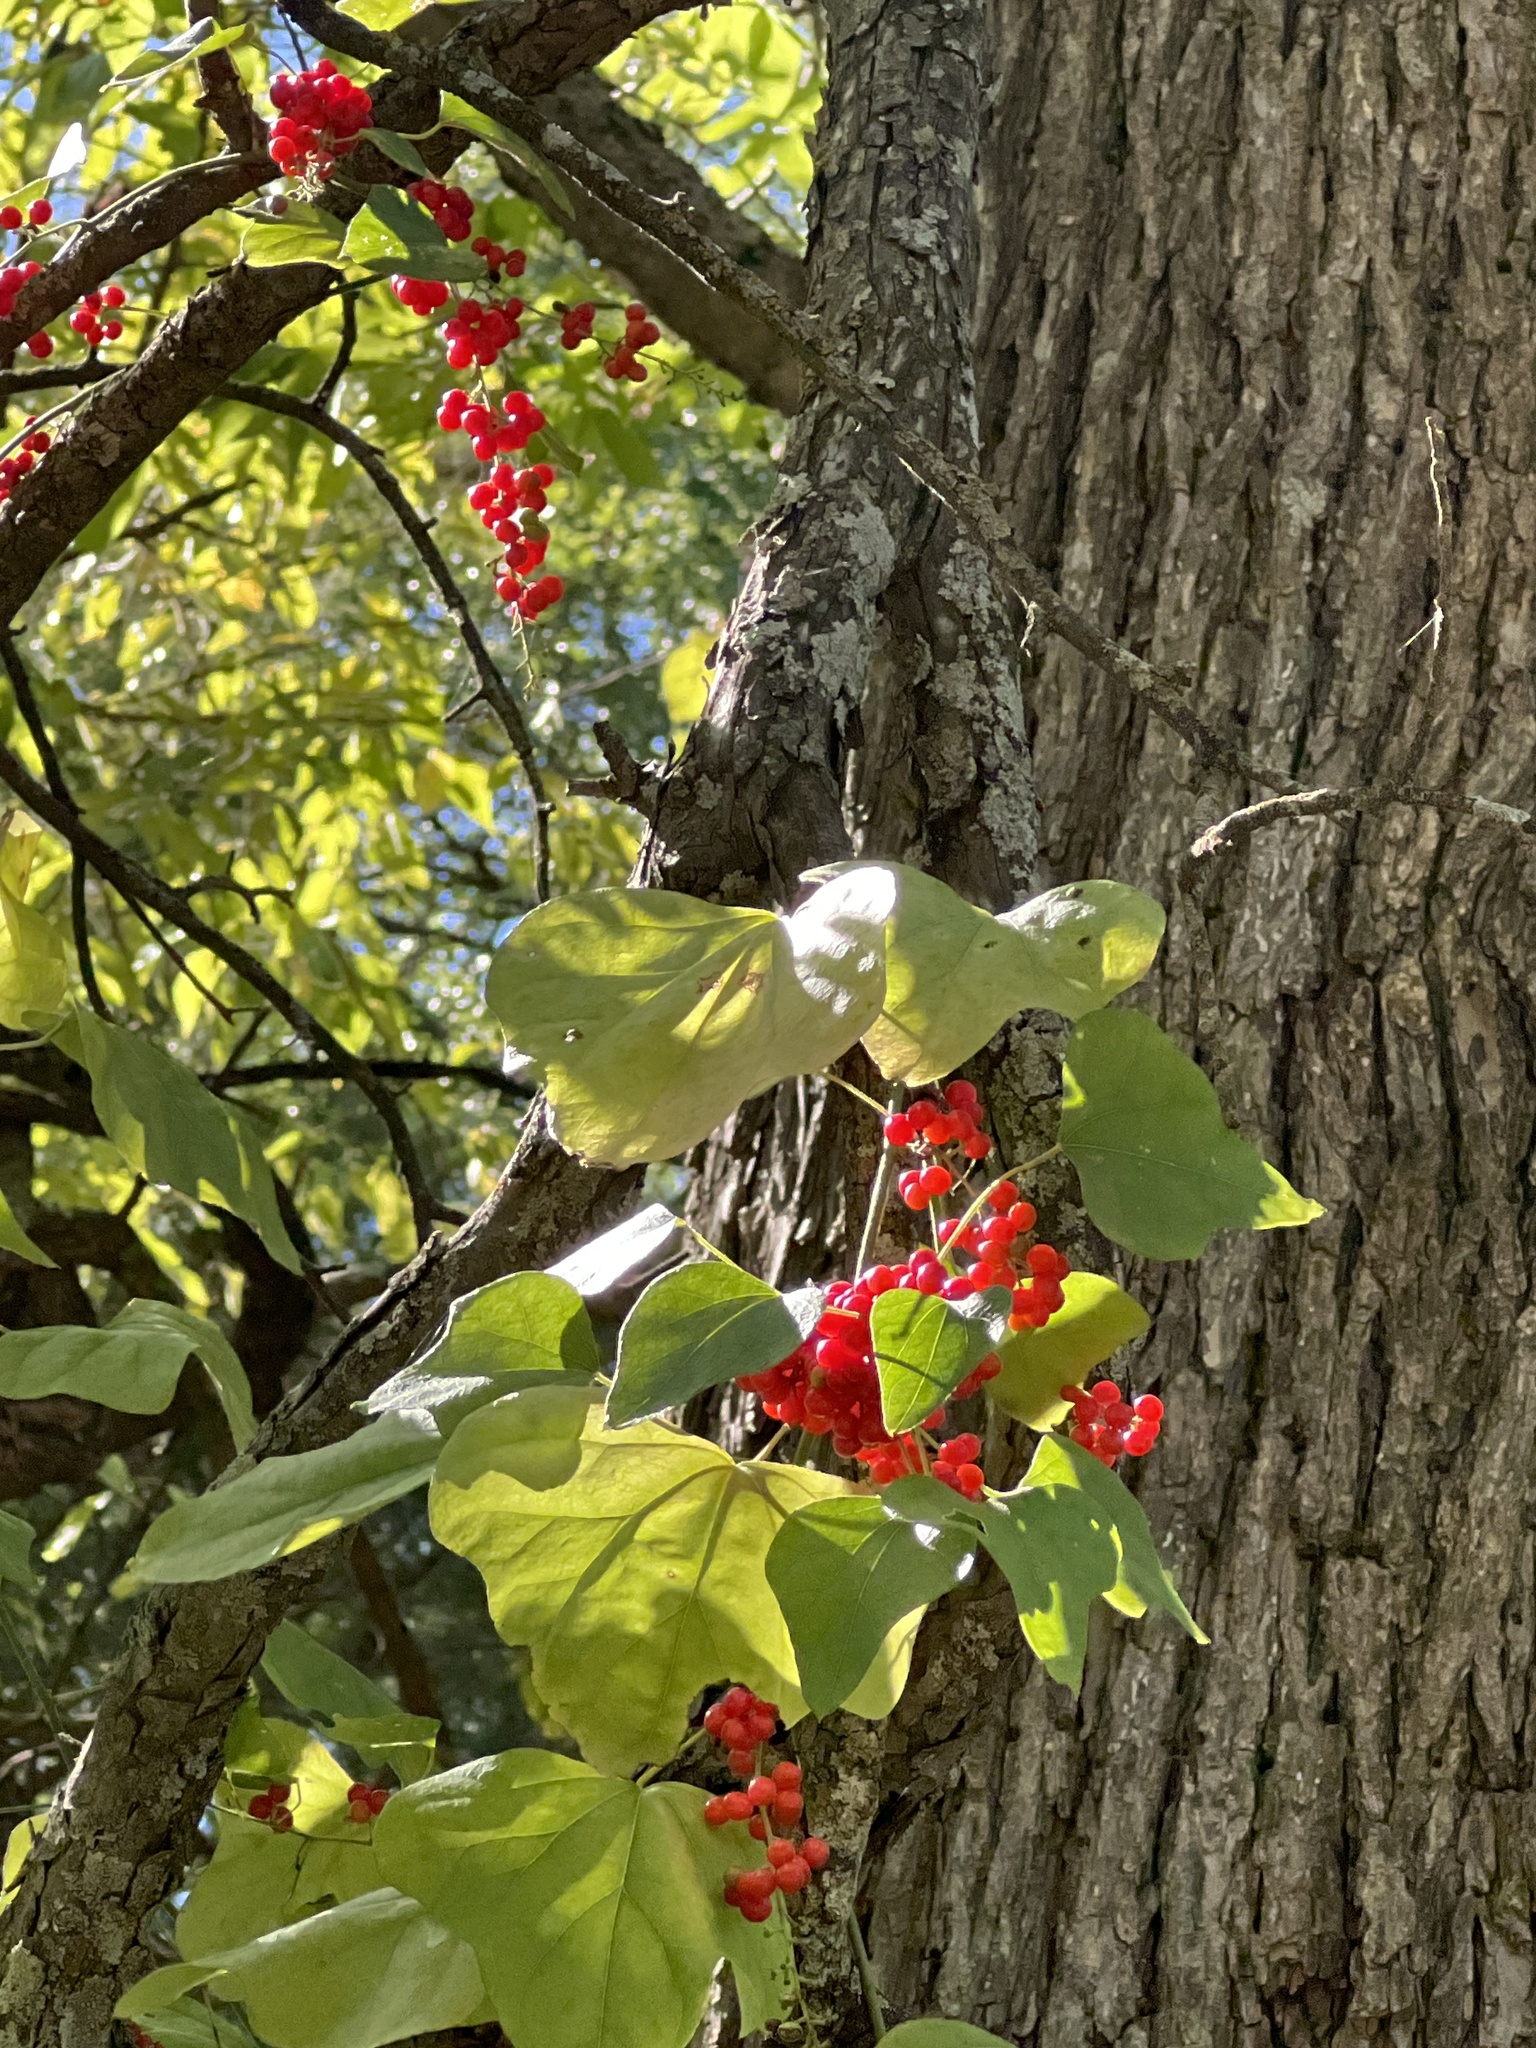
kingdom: Plantae
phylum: Tracheophyta
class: Magnoliopsida
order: Ranunculales
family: Menispermaceae
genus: Cocculus
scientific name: Cocculus carolinus
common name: Carolina moonseed
